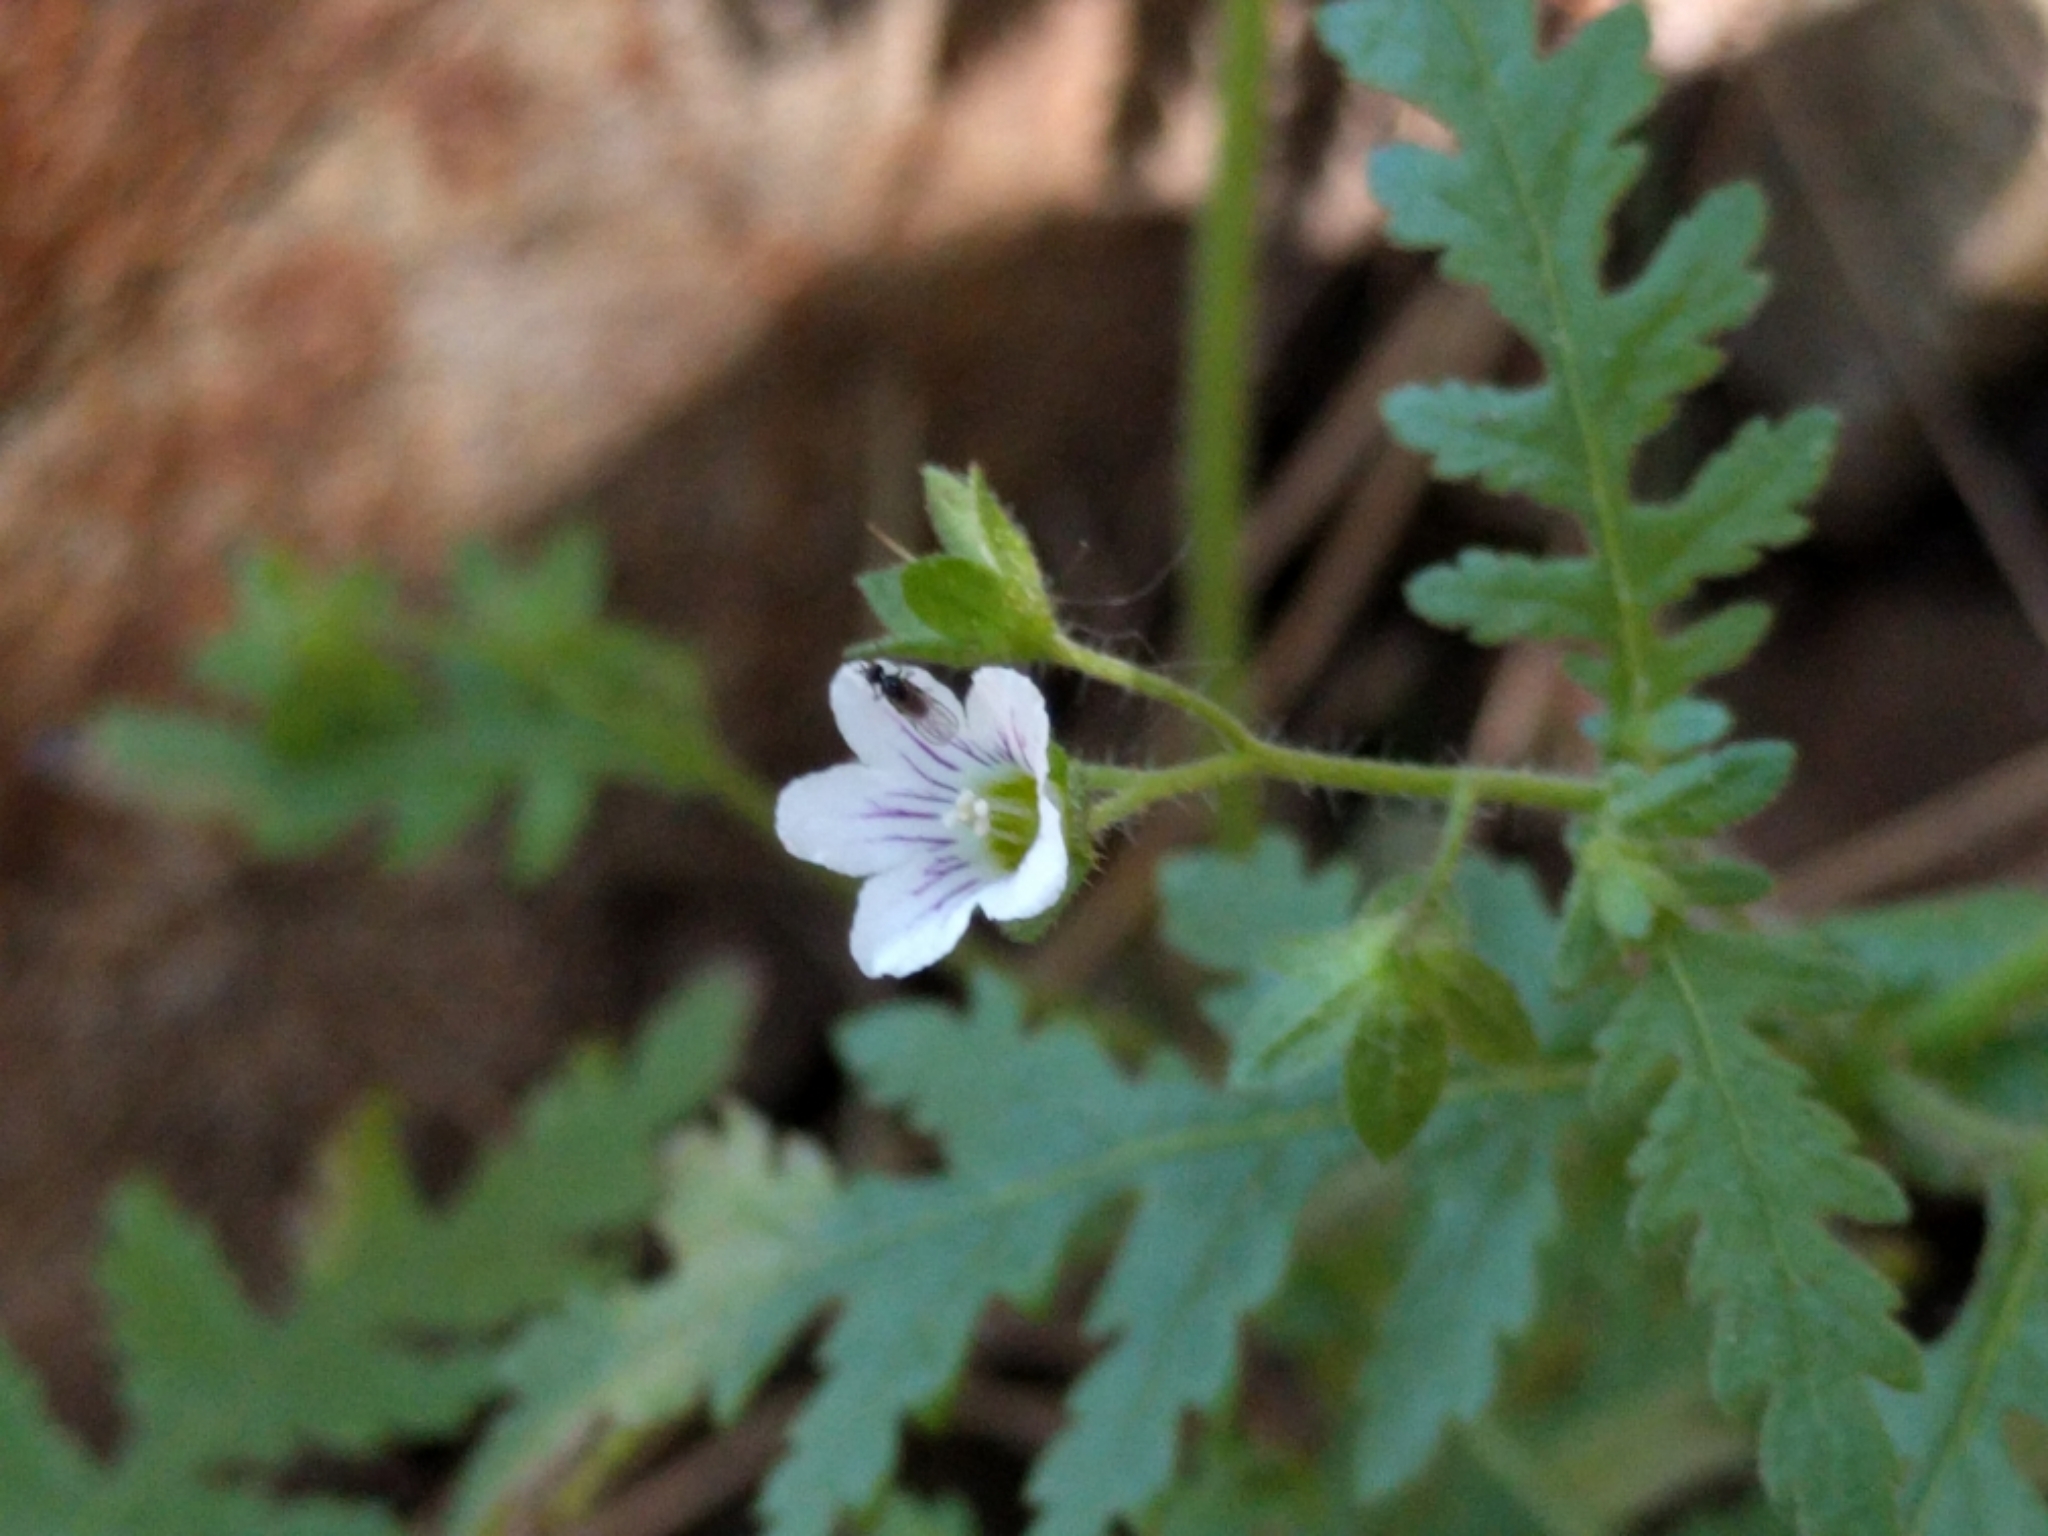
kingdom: Plantae
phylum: Tracheophyta
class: Magnoliopsida
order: Boraginales
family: Hydrophyllaceae
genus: Eucrypta
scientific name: Eucrypta chrysanthemifolia
